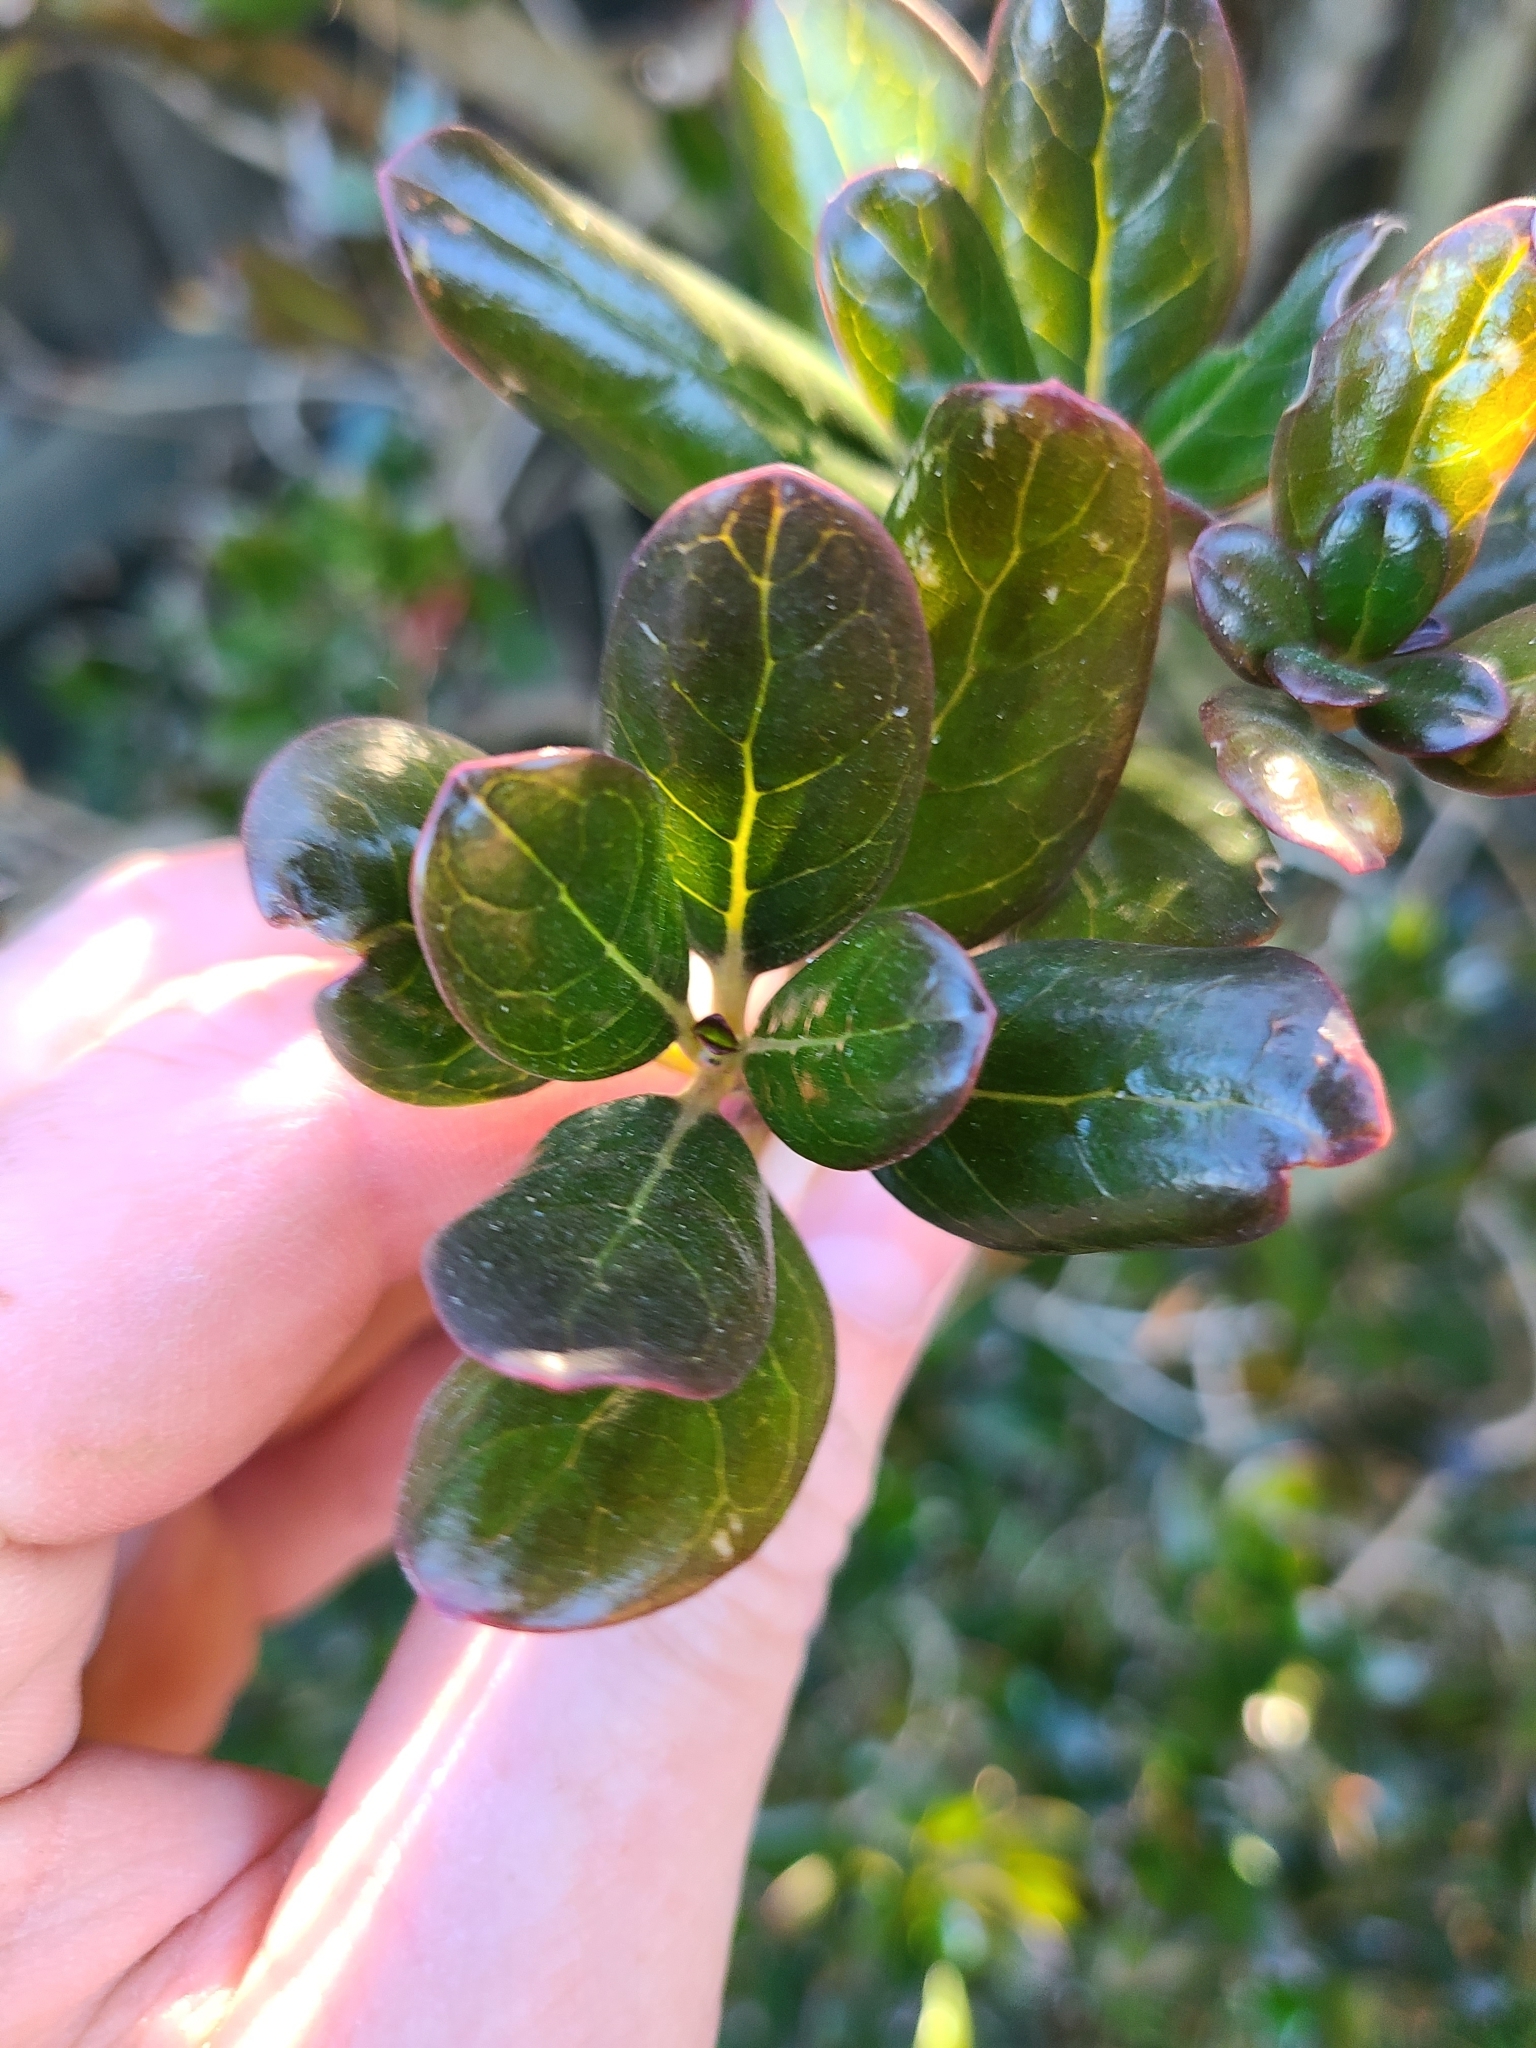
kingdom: Plantae
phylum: Tracheophyta
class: Magnoliopsida
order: Gentianales
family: Rubiaceae
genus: Coprosma
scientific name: Coprosma repens
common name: Tree bedstraw
